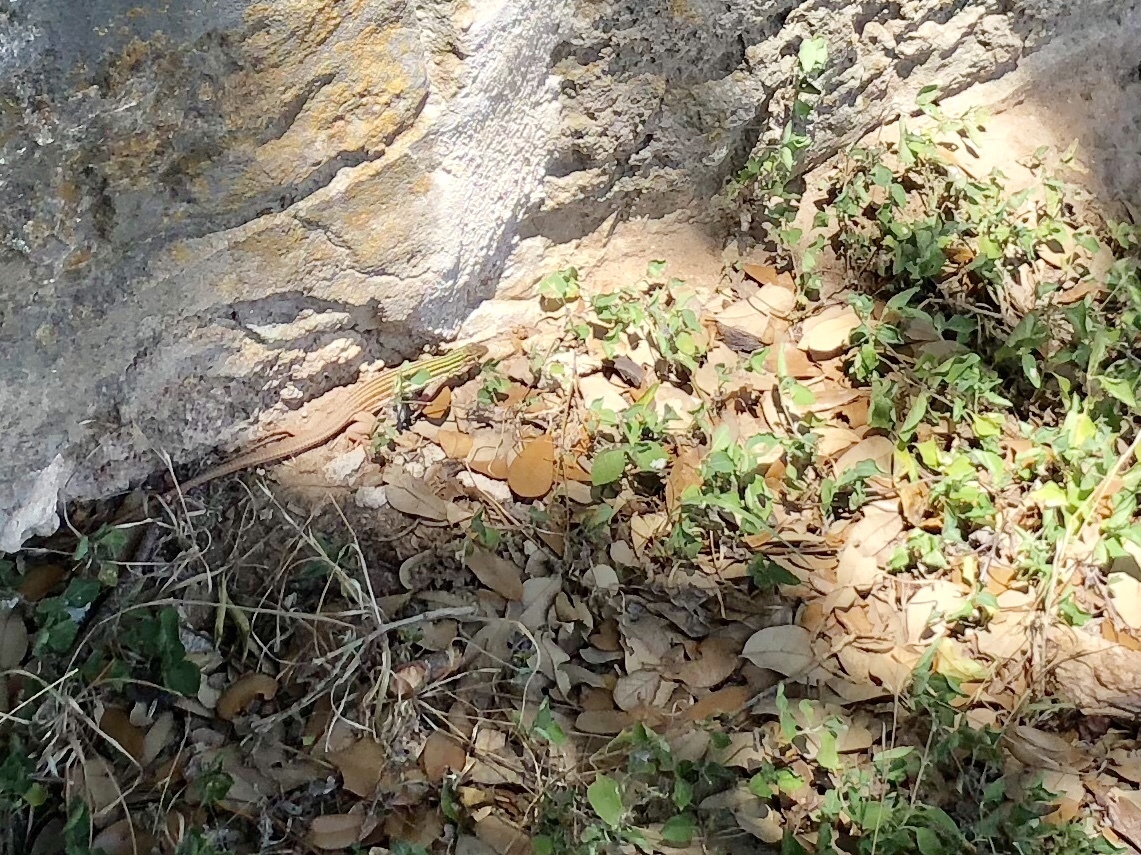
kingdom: Animalia
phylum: Chordata
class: Squamata
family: Teiidae
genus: Aspidoscelis
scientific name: Aspidoscelis gularis
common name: Eastern spotted whiptail
